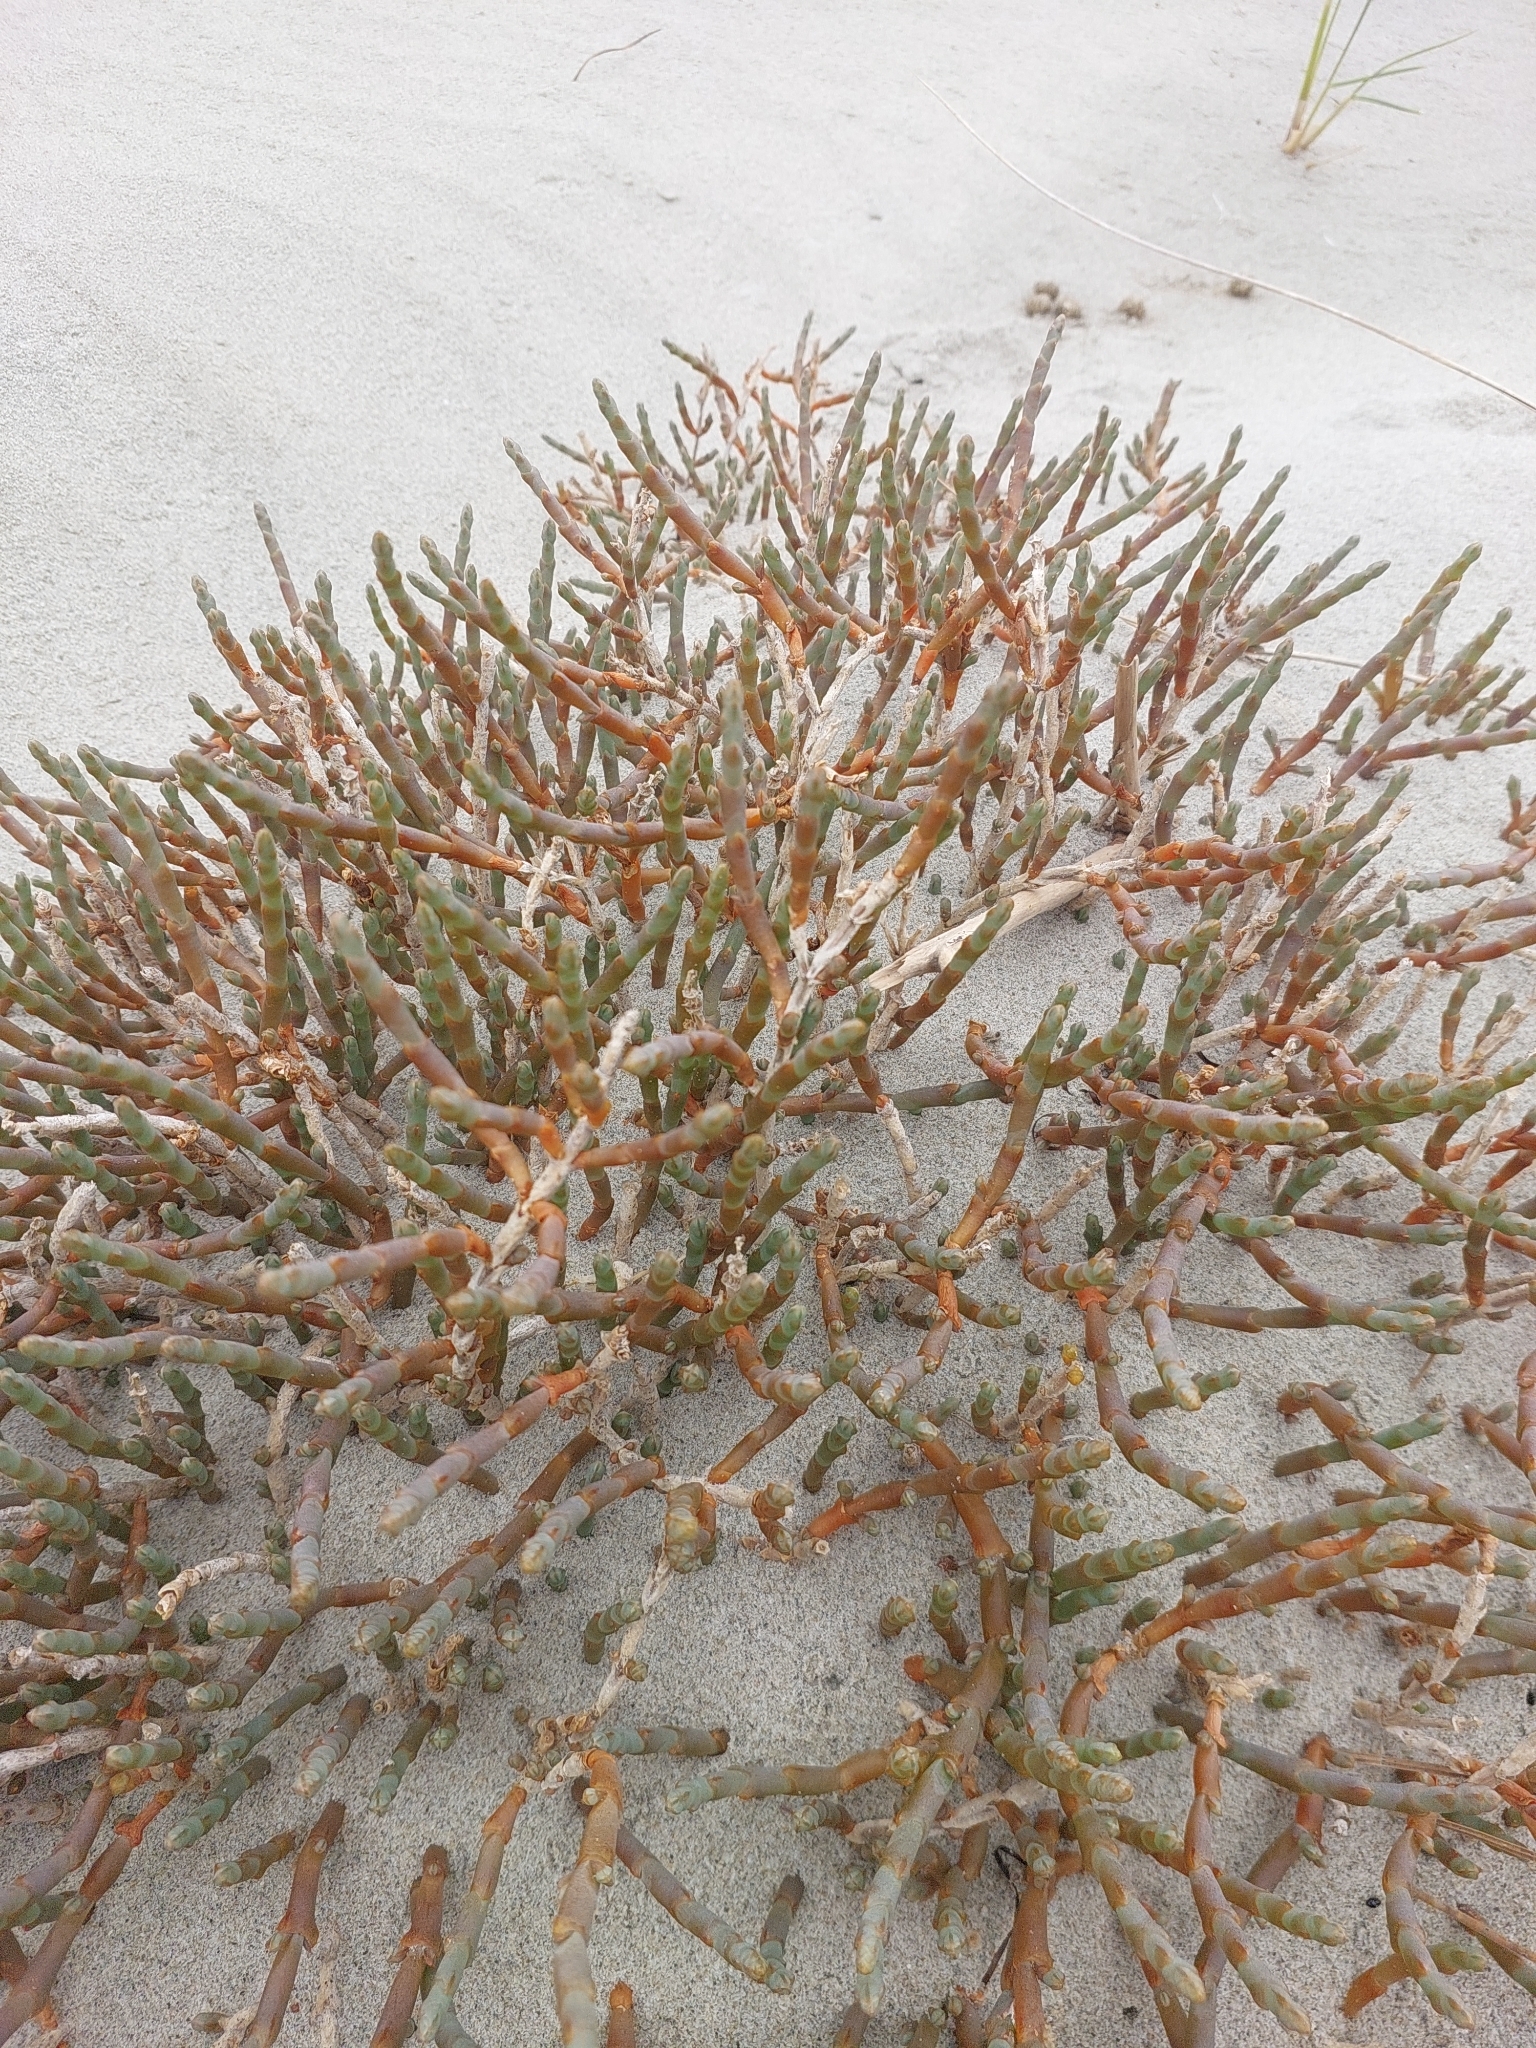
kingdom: Plantae
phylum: Tracheophyta
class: Magnoliopsida
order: Caryophyllales
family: Amaranthaceae
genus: Salicornia
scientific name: Salicornia quinqueflora
